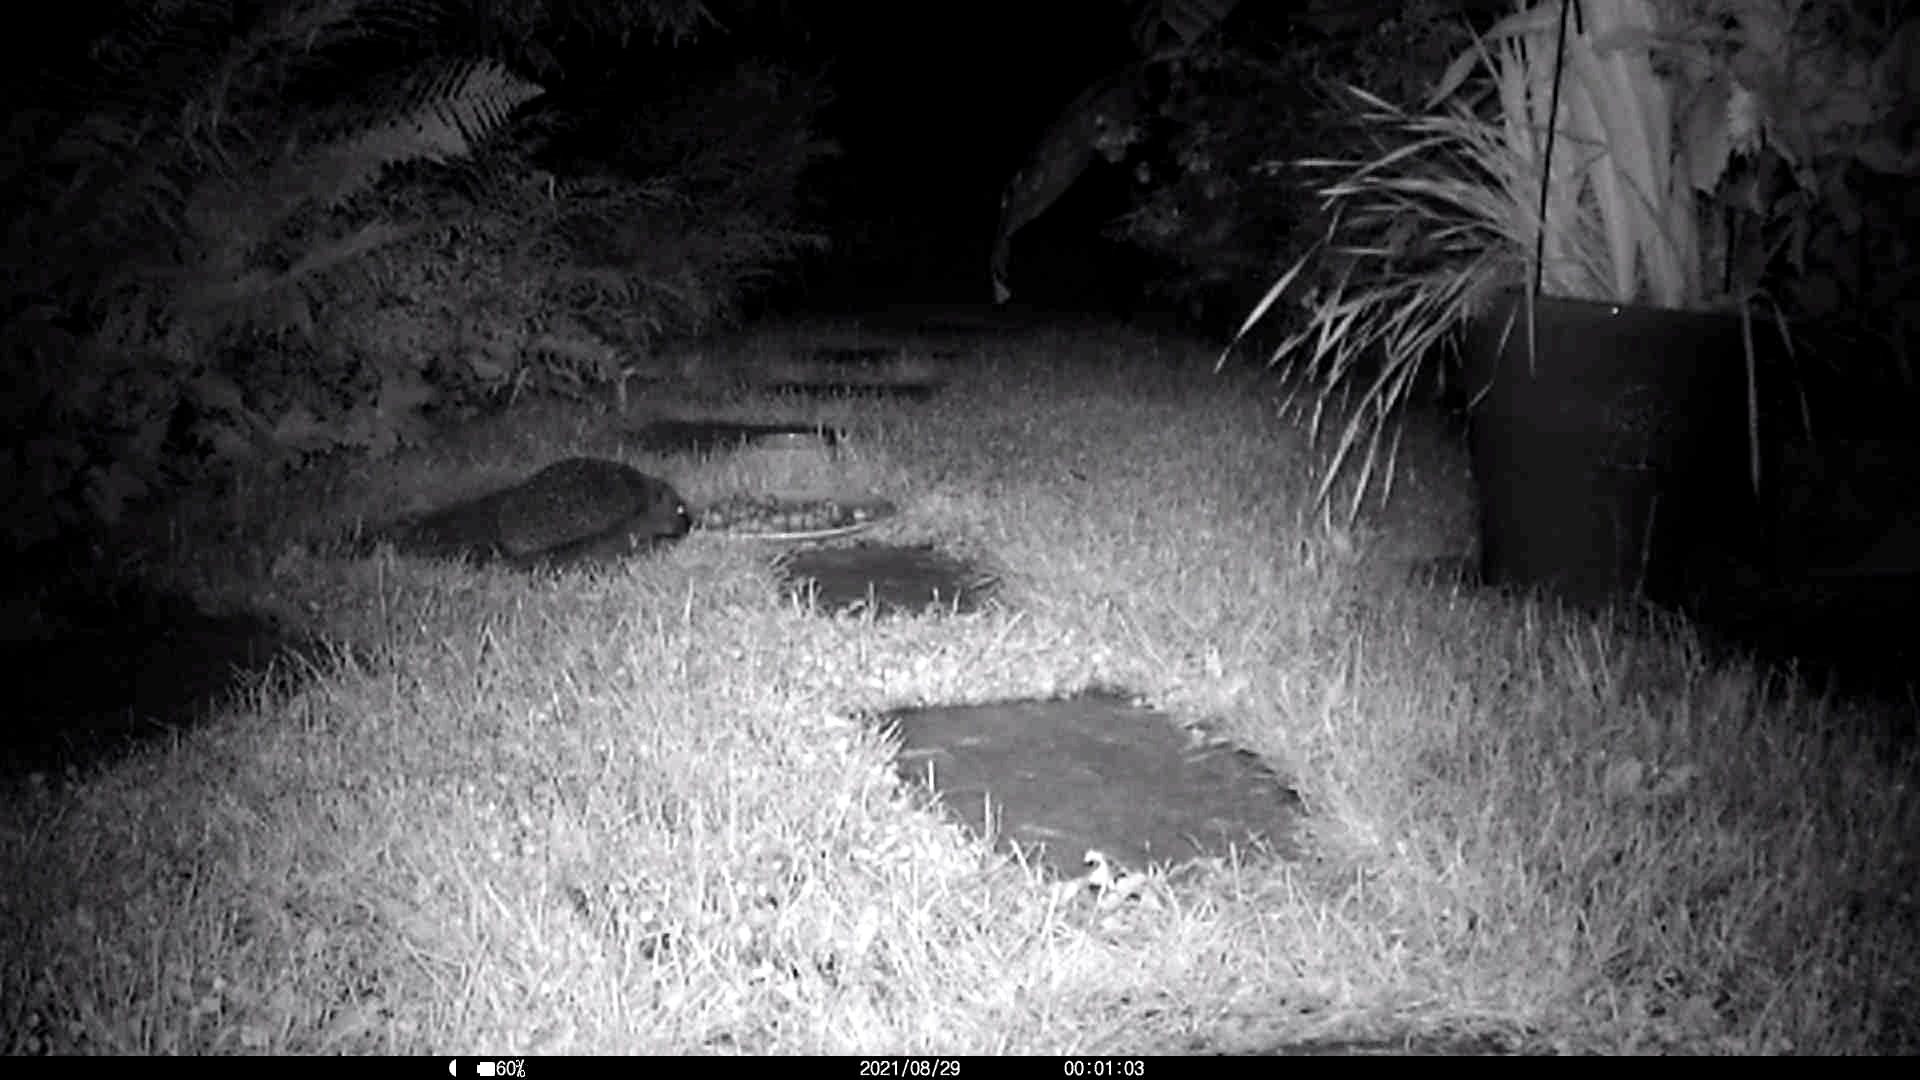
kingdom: Animalia
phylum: Chordata
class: Mammalia
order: Erinaceomorpha
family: Erinaceidae
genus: Erinaceus
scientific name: Erinaceus europaeus
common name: West european hedgehog
